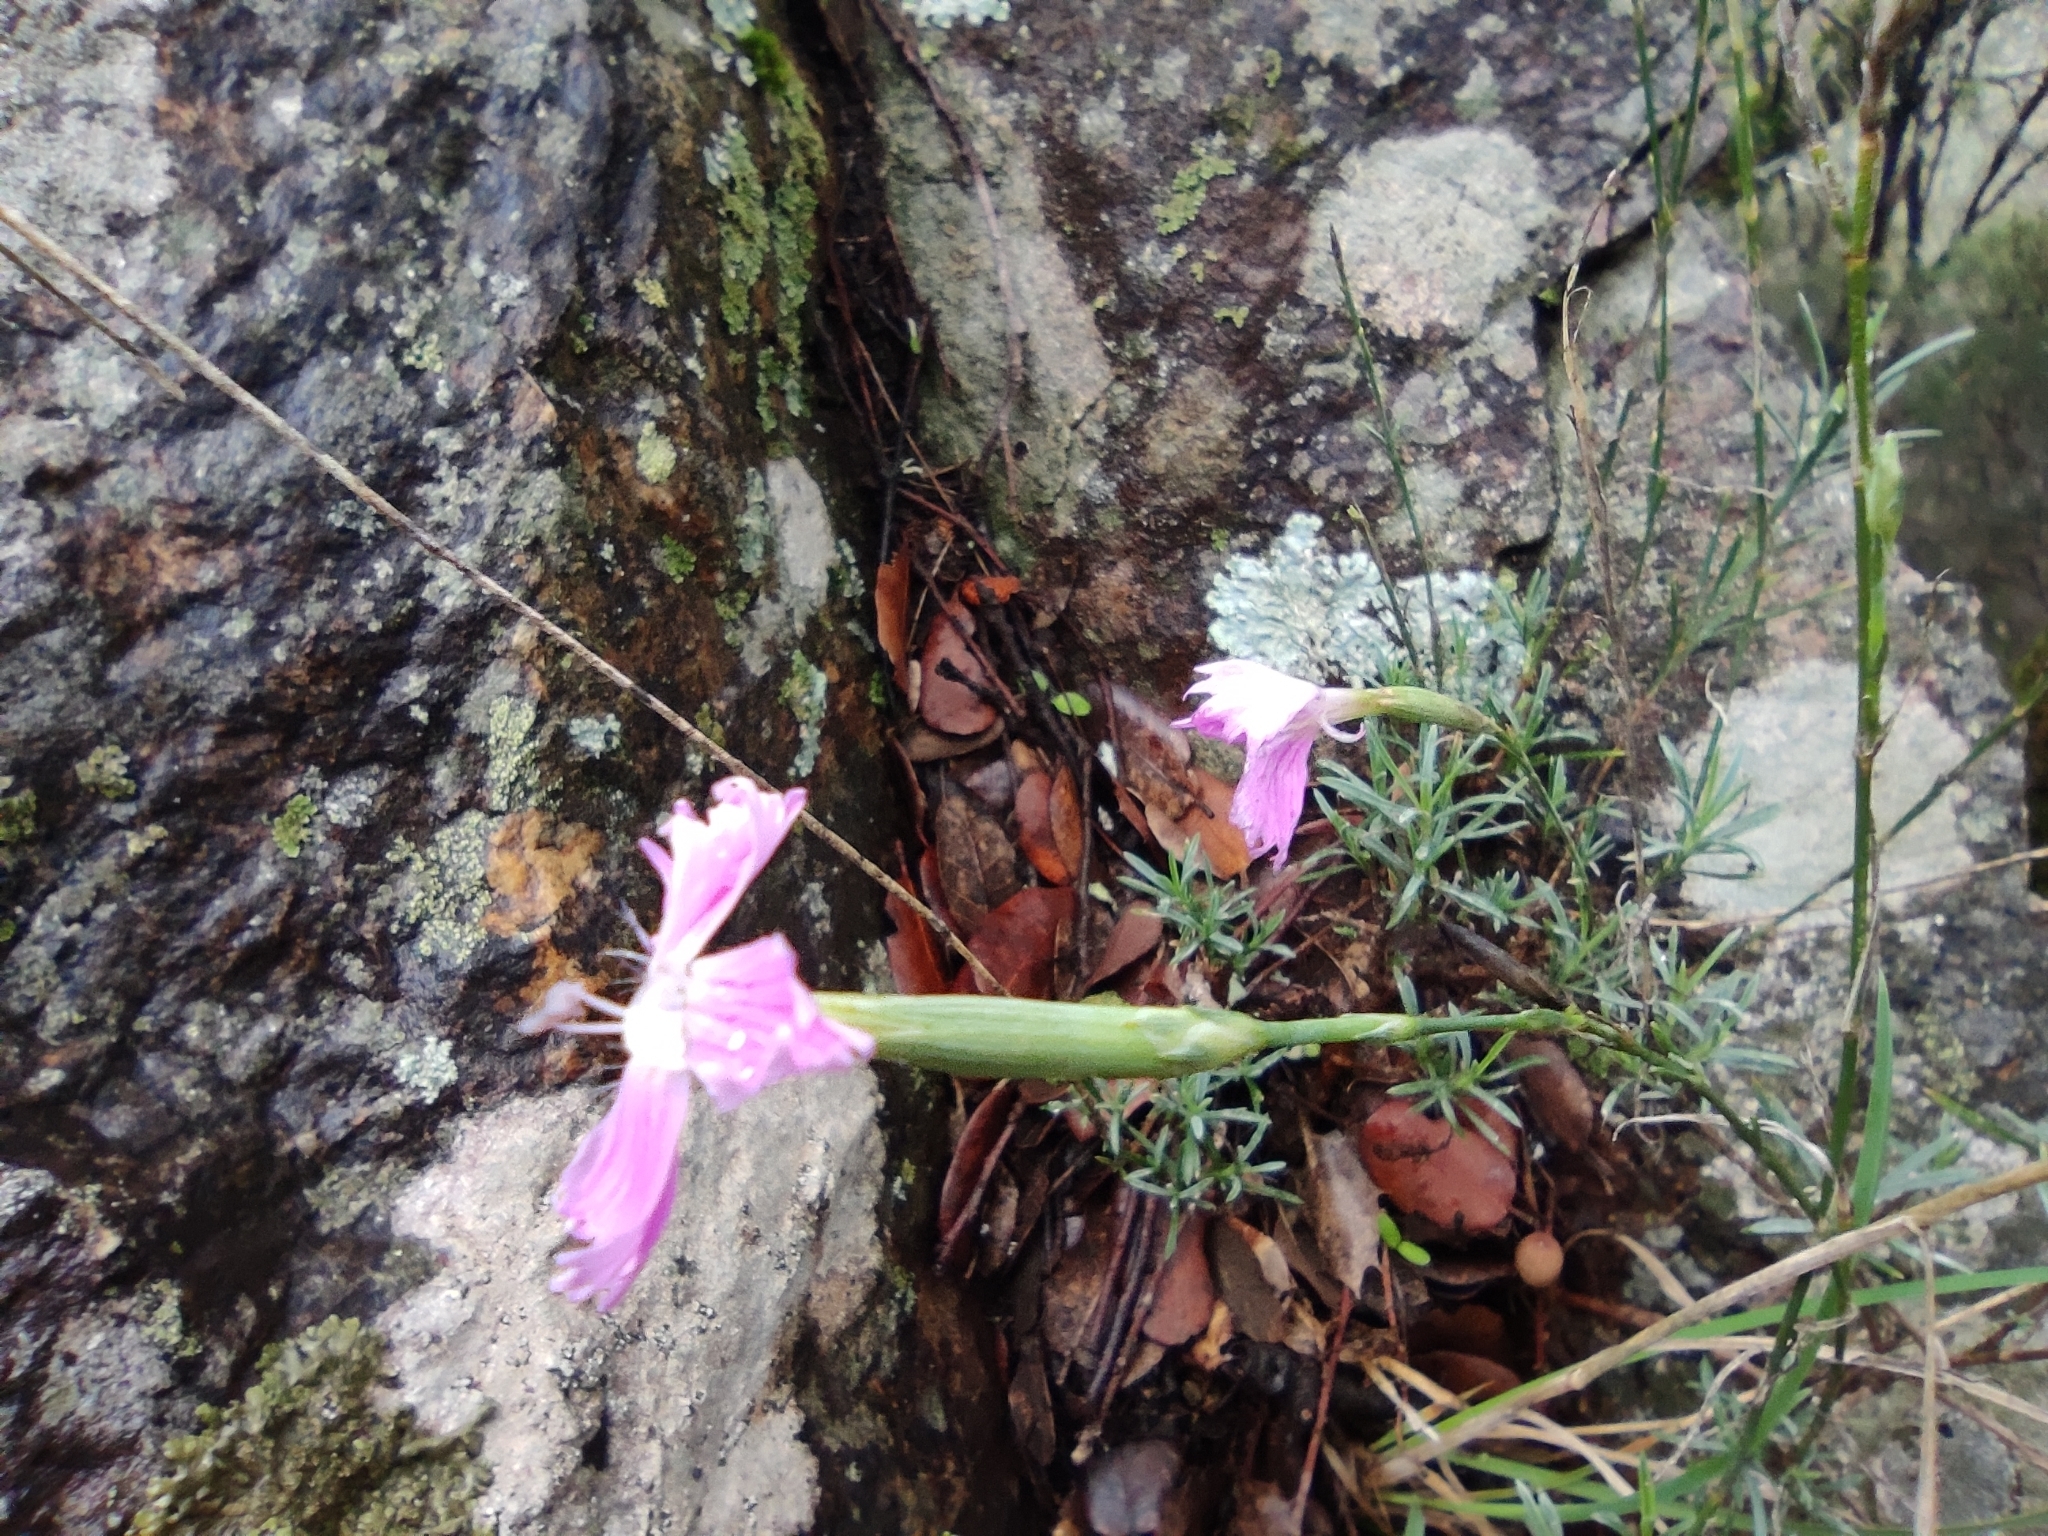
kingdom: Plantae
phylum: Tracheophyta
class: Magnoliopsida
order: Caryophyllales
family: Caryophyllaceae
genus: Dianthus
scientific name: Dianthus lusitanus
